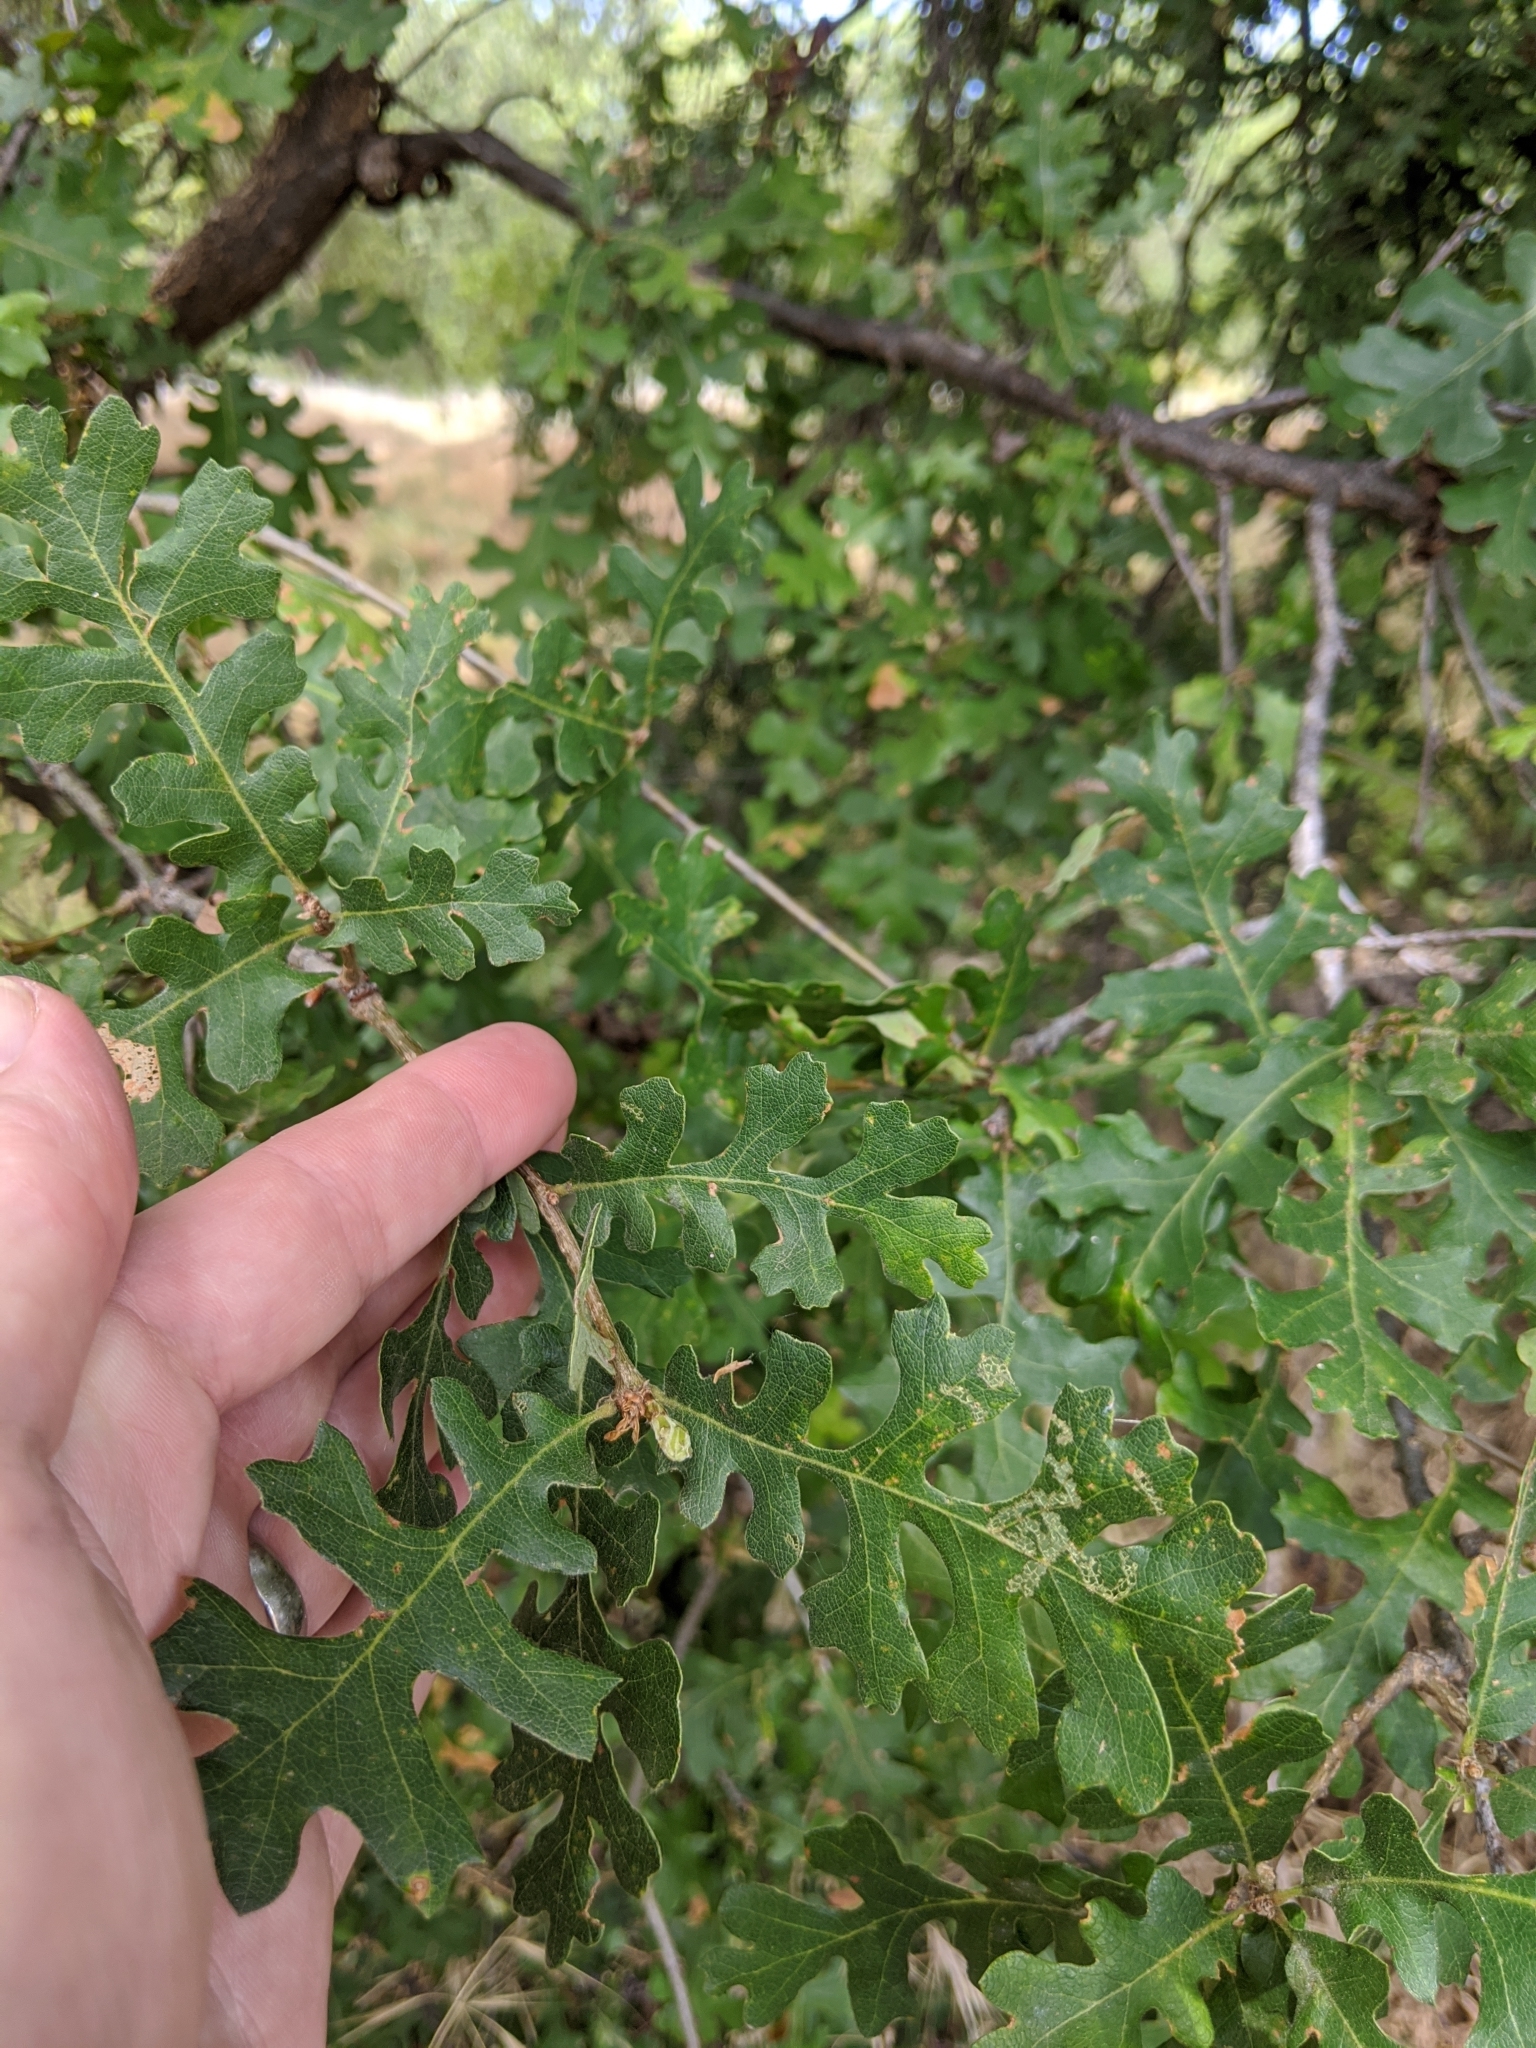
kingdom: Plantae
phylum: Tracheophyta
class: Magnoliopsida
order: Fagales
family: Fagaceae
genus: Quercus
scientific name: Quercus lobata
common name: Valley oak
